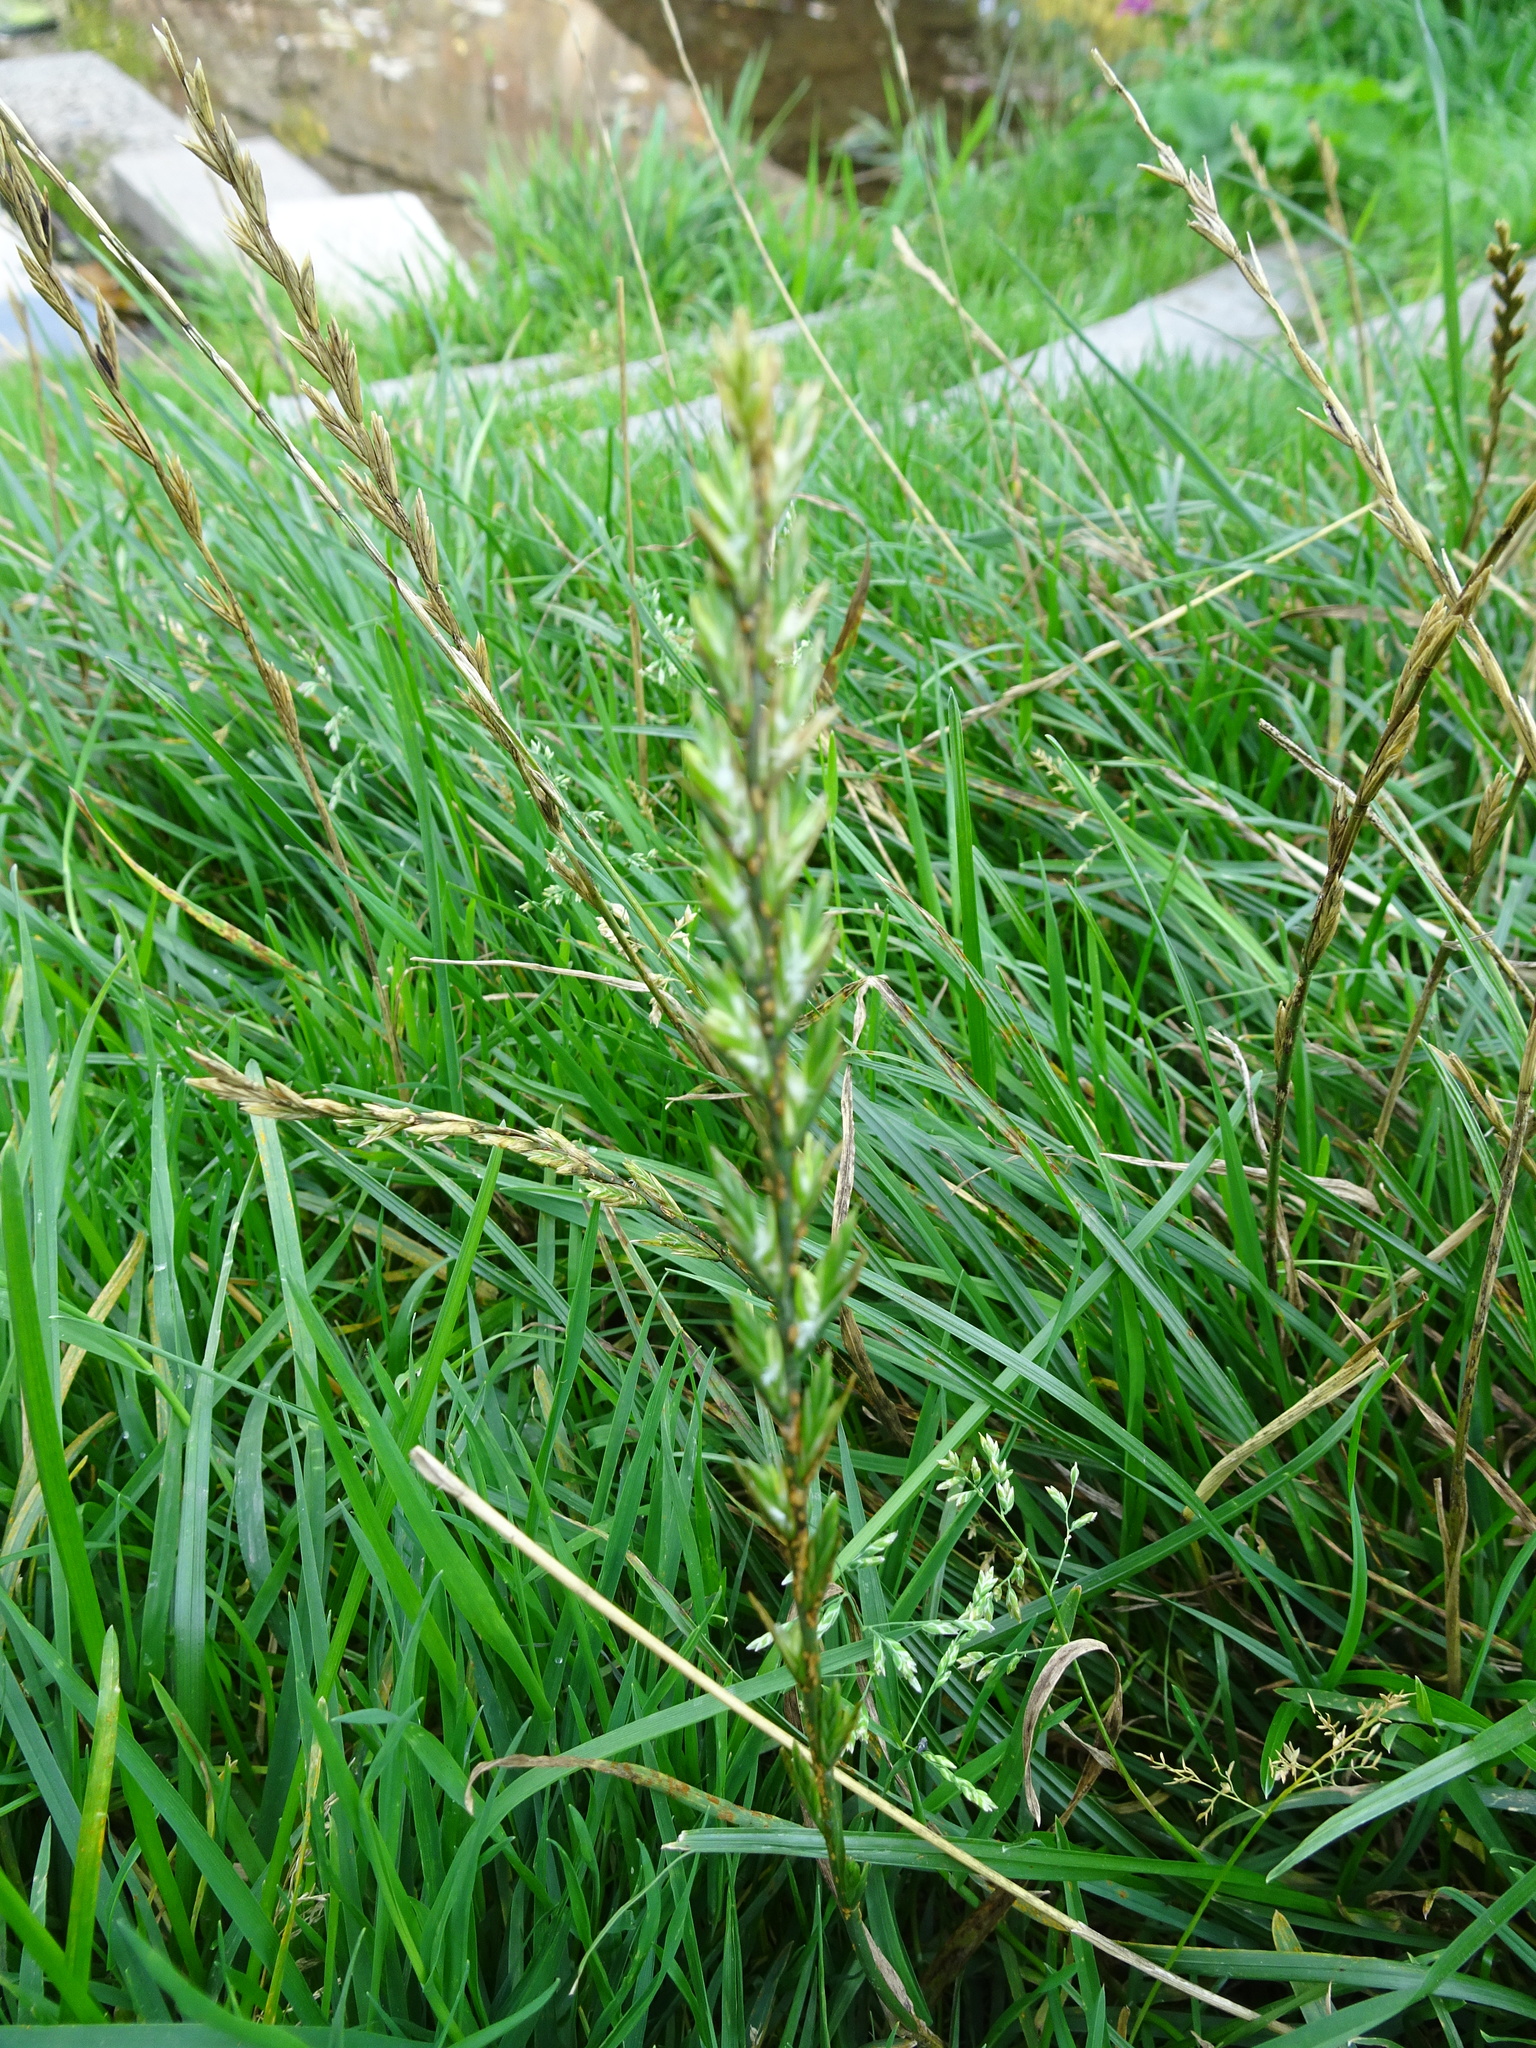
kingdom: Plantae
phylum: Tracheophyta
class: Liliopsida
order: Poales
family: Poaceae
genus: Lolium
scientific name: Lolium perenne
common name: Perennial ryegrass
